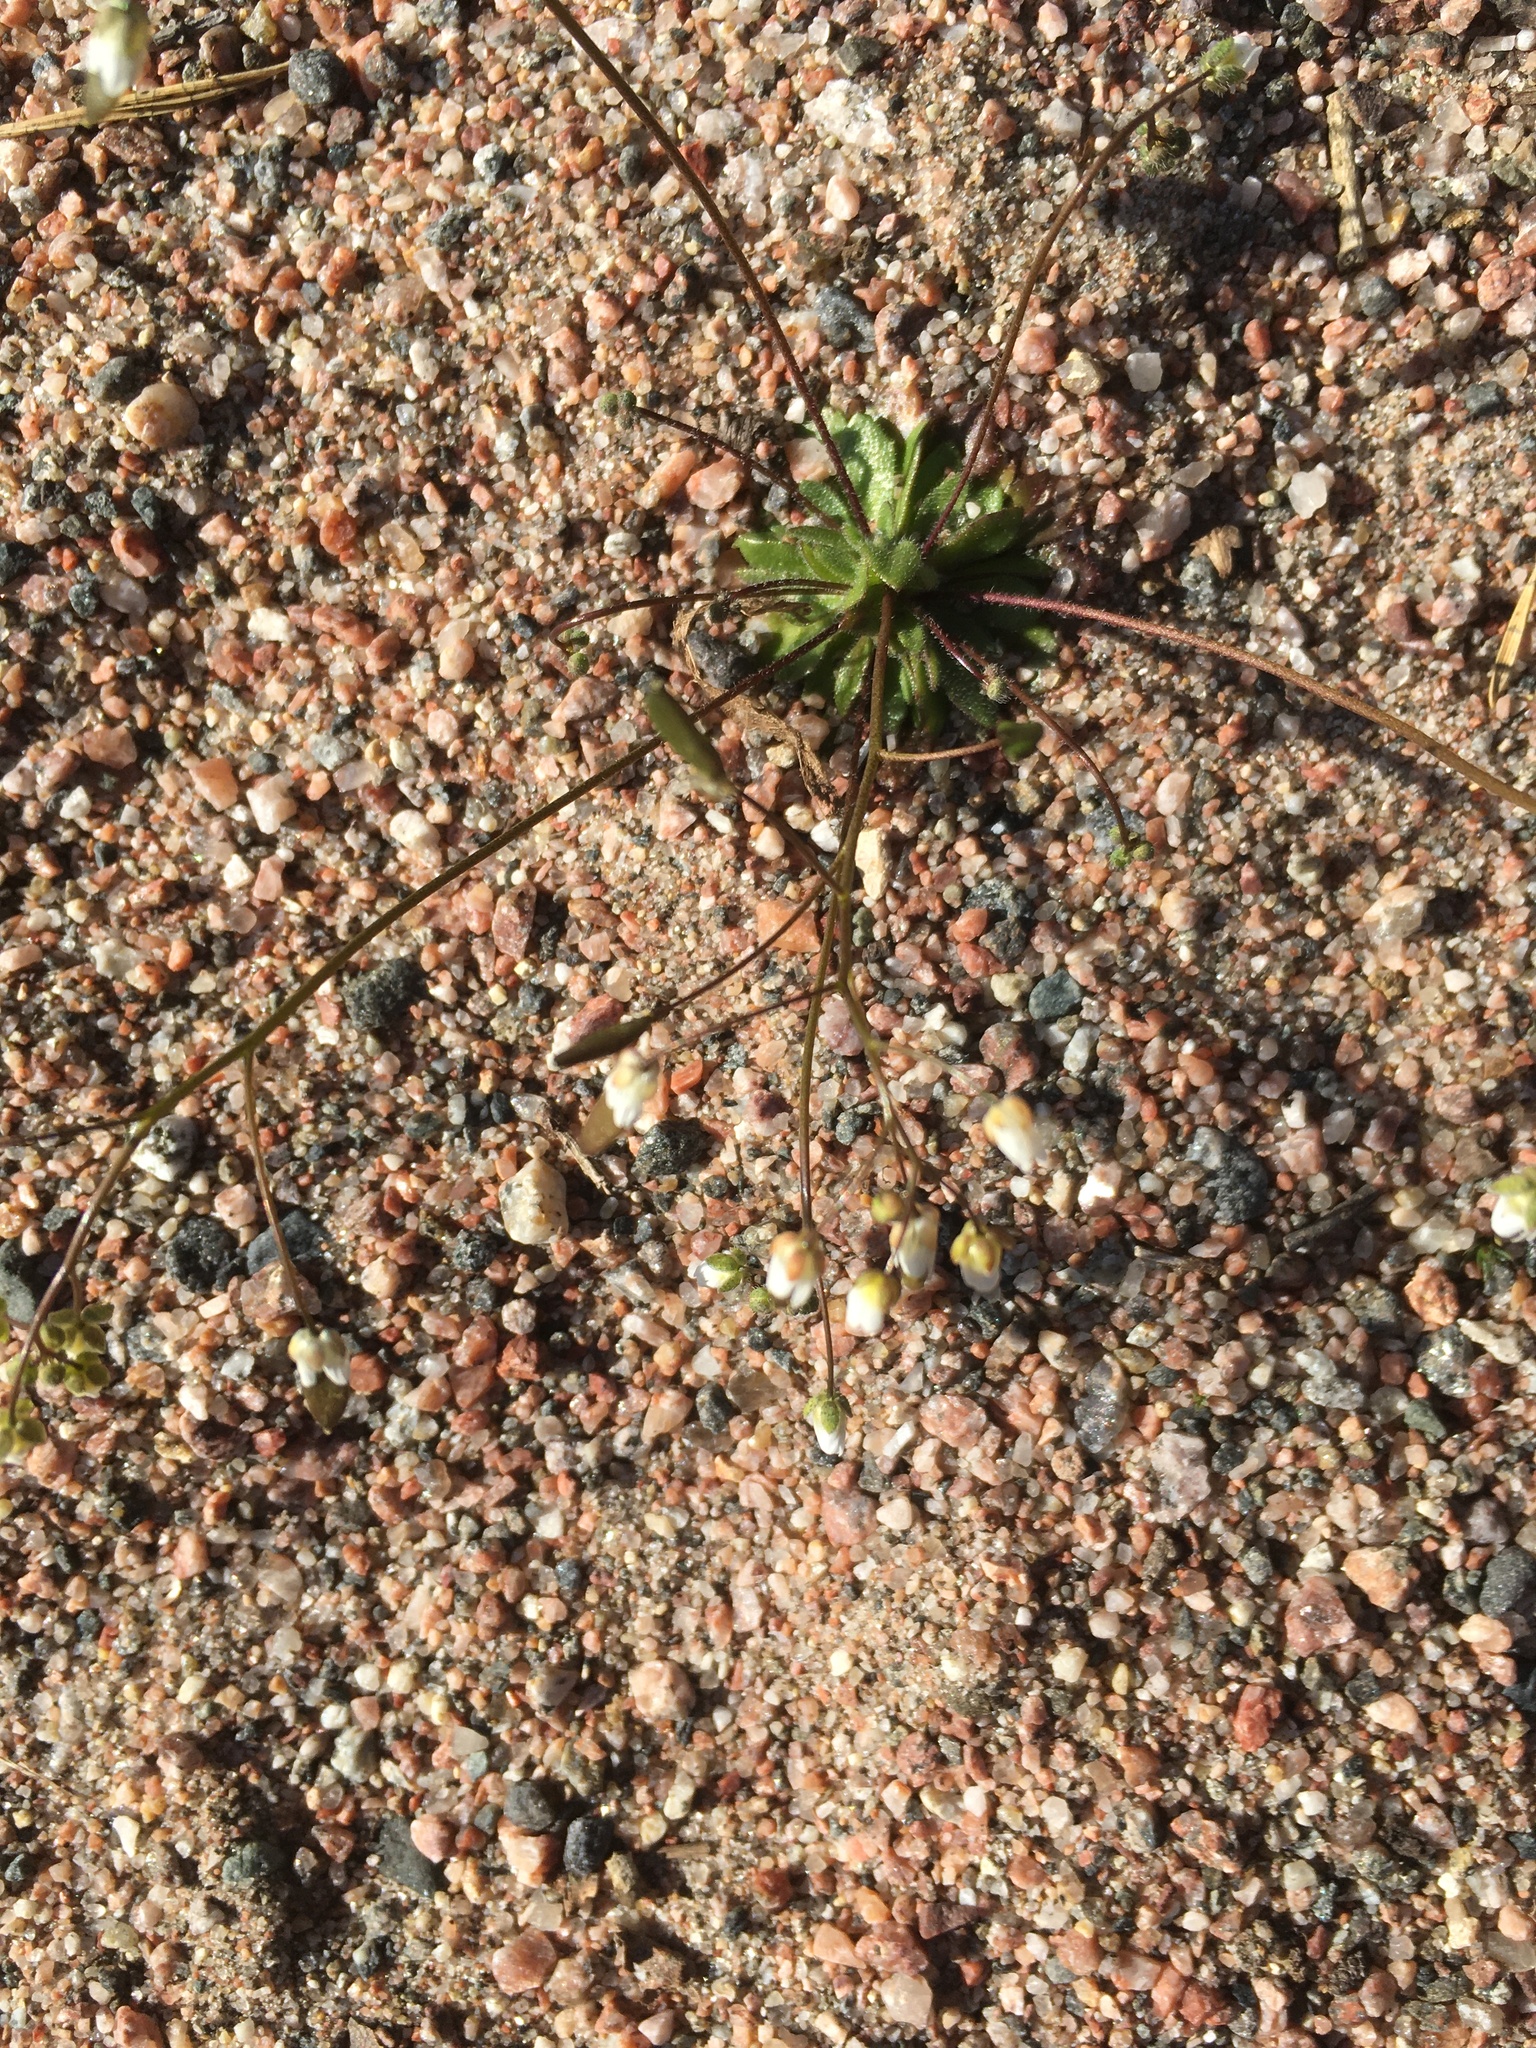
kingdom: Plantae
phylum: Tracheophyta
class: Magnoliopsida
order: Brassicales
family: Brassicaceae
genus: Draba
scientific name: Draba verna
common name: Spring draba
